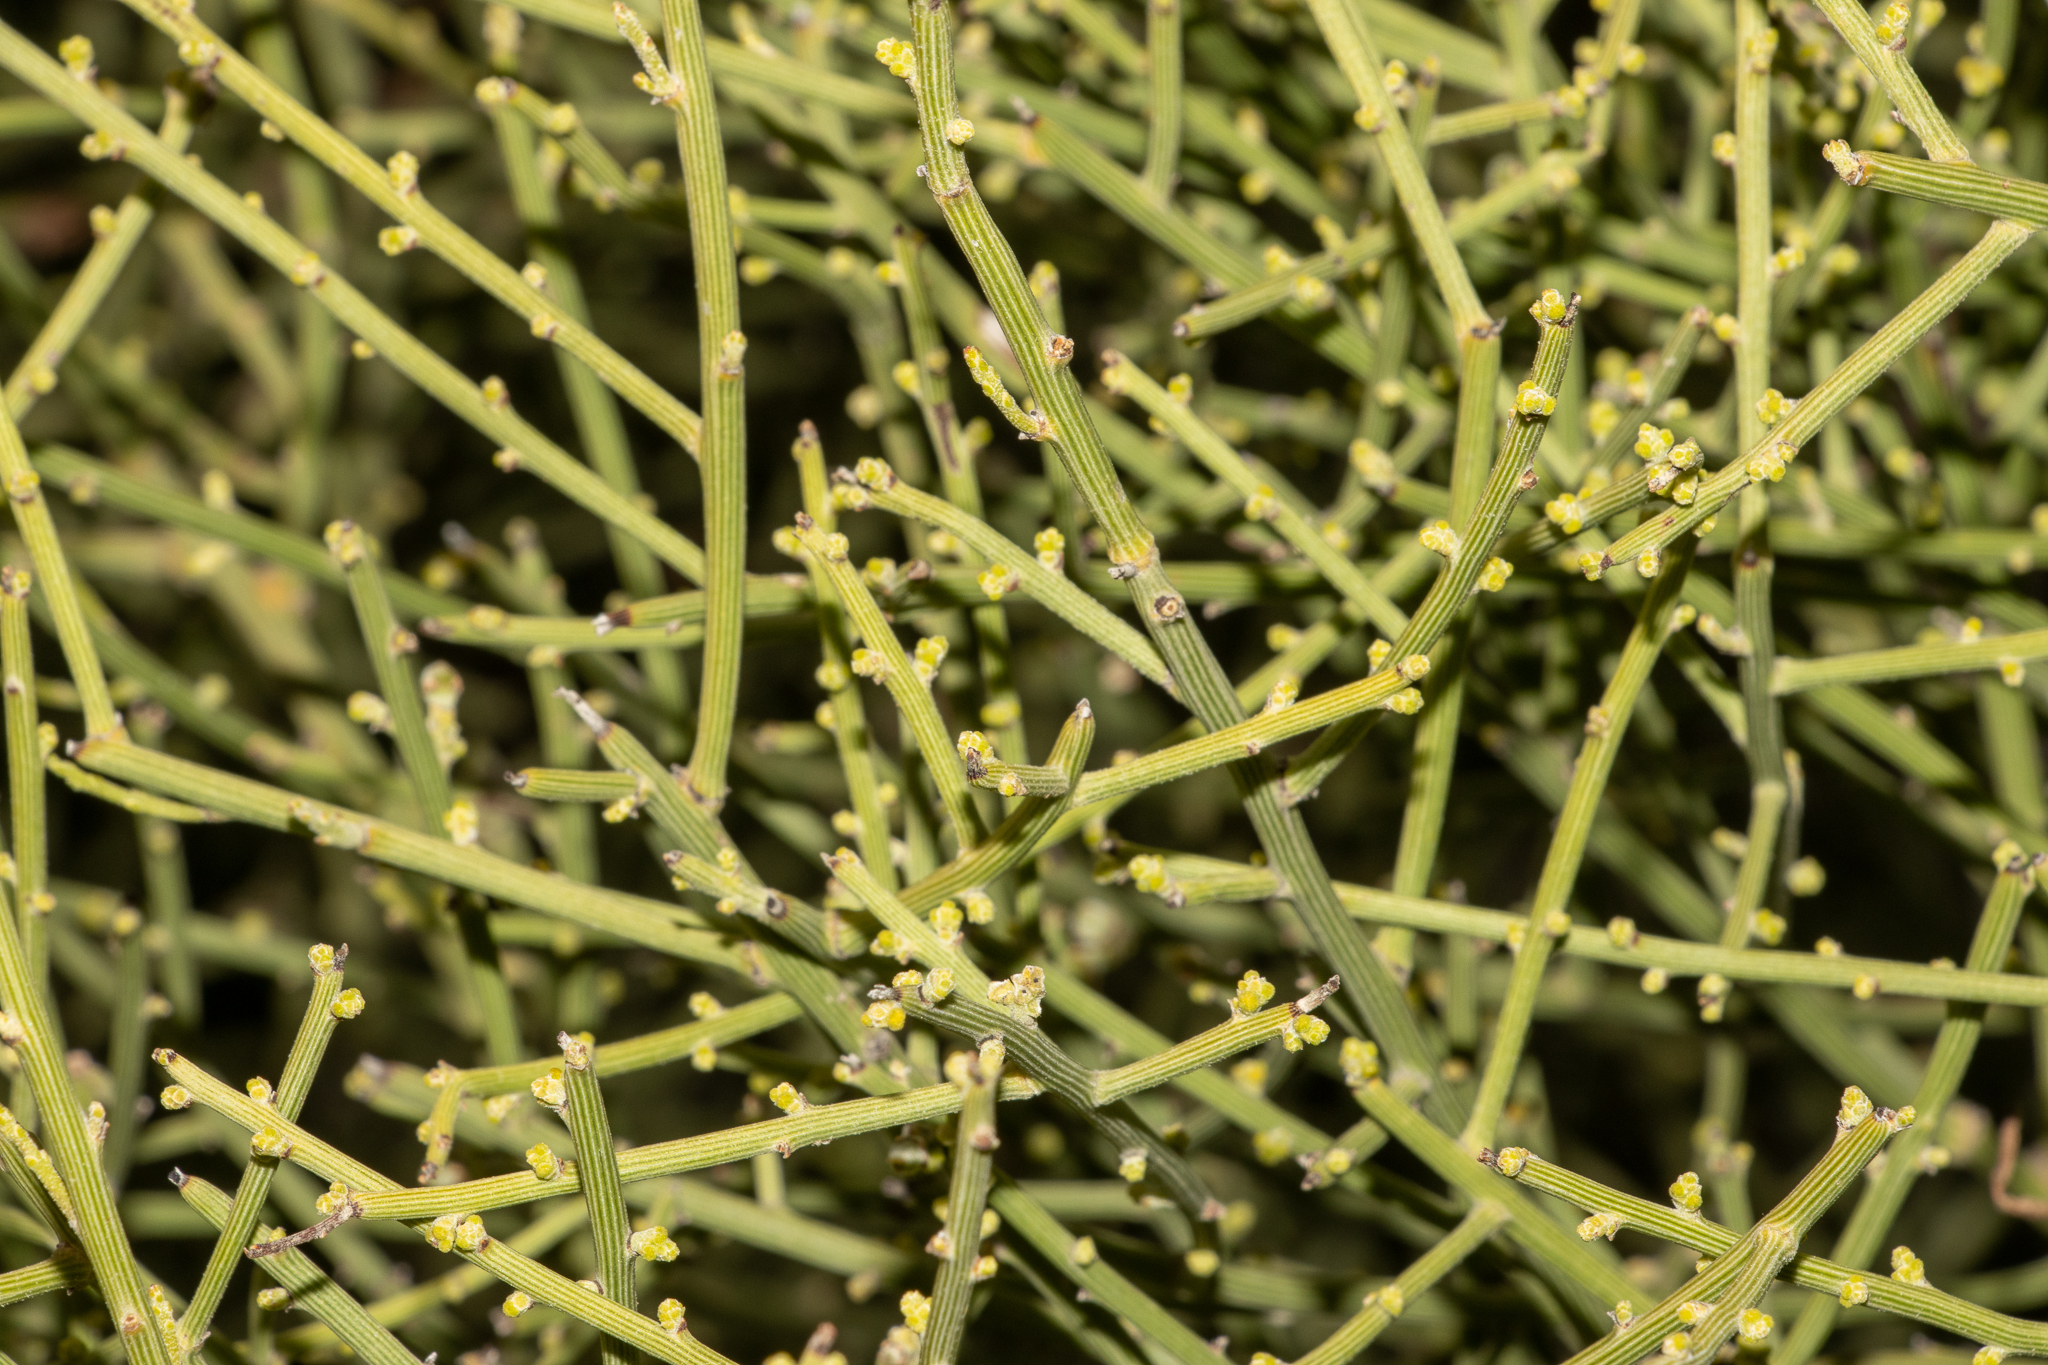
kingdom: Plantae
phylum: Tracheophyta
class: Magnoliopsida
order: Santalales
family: Santalaceae
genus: Exocarpos
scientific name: Exocarpos aphyllus
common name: Leafless ballart
